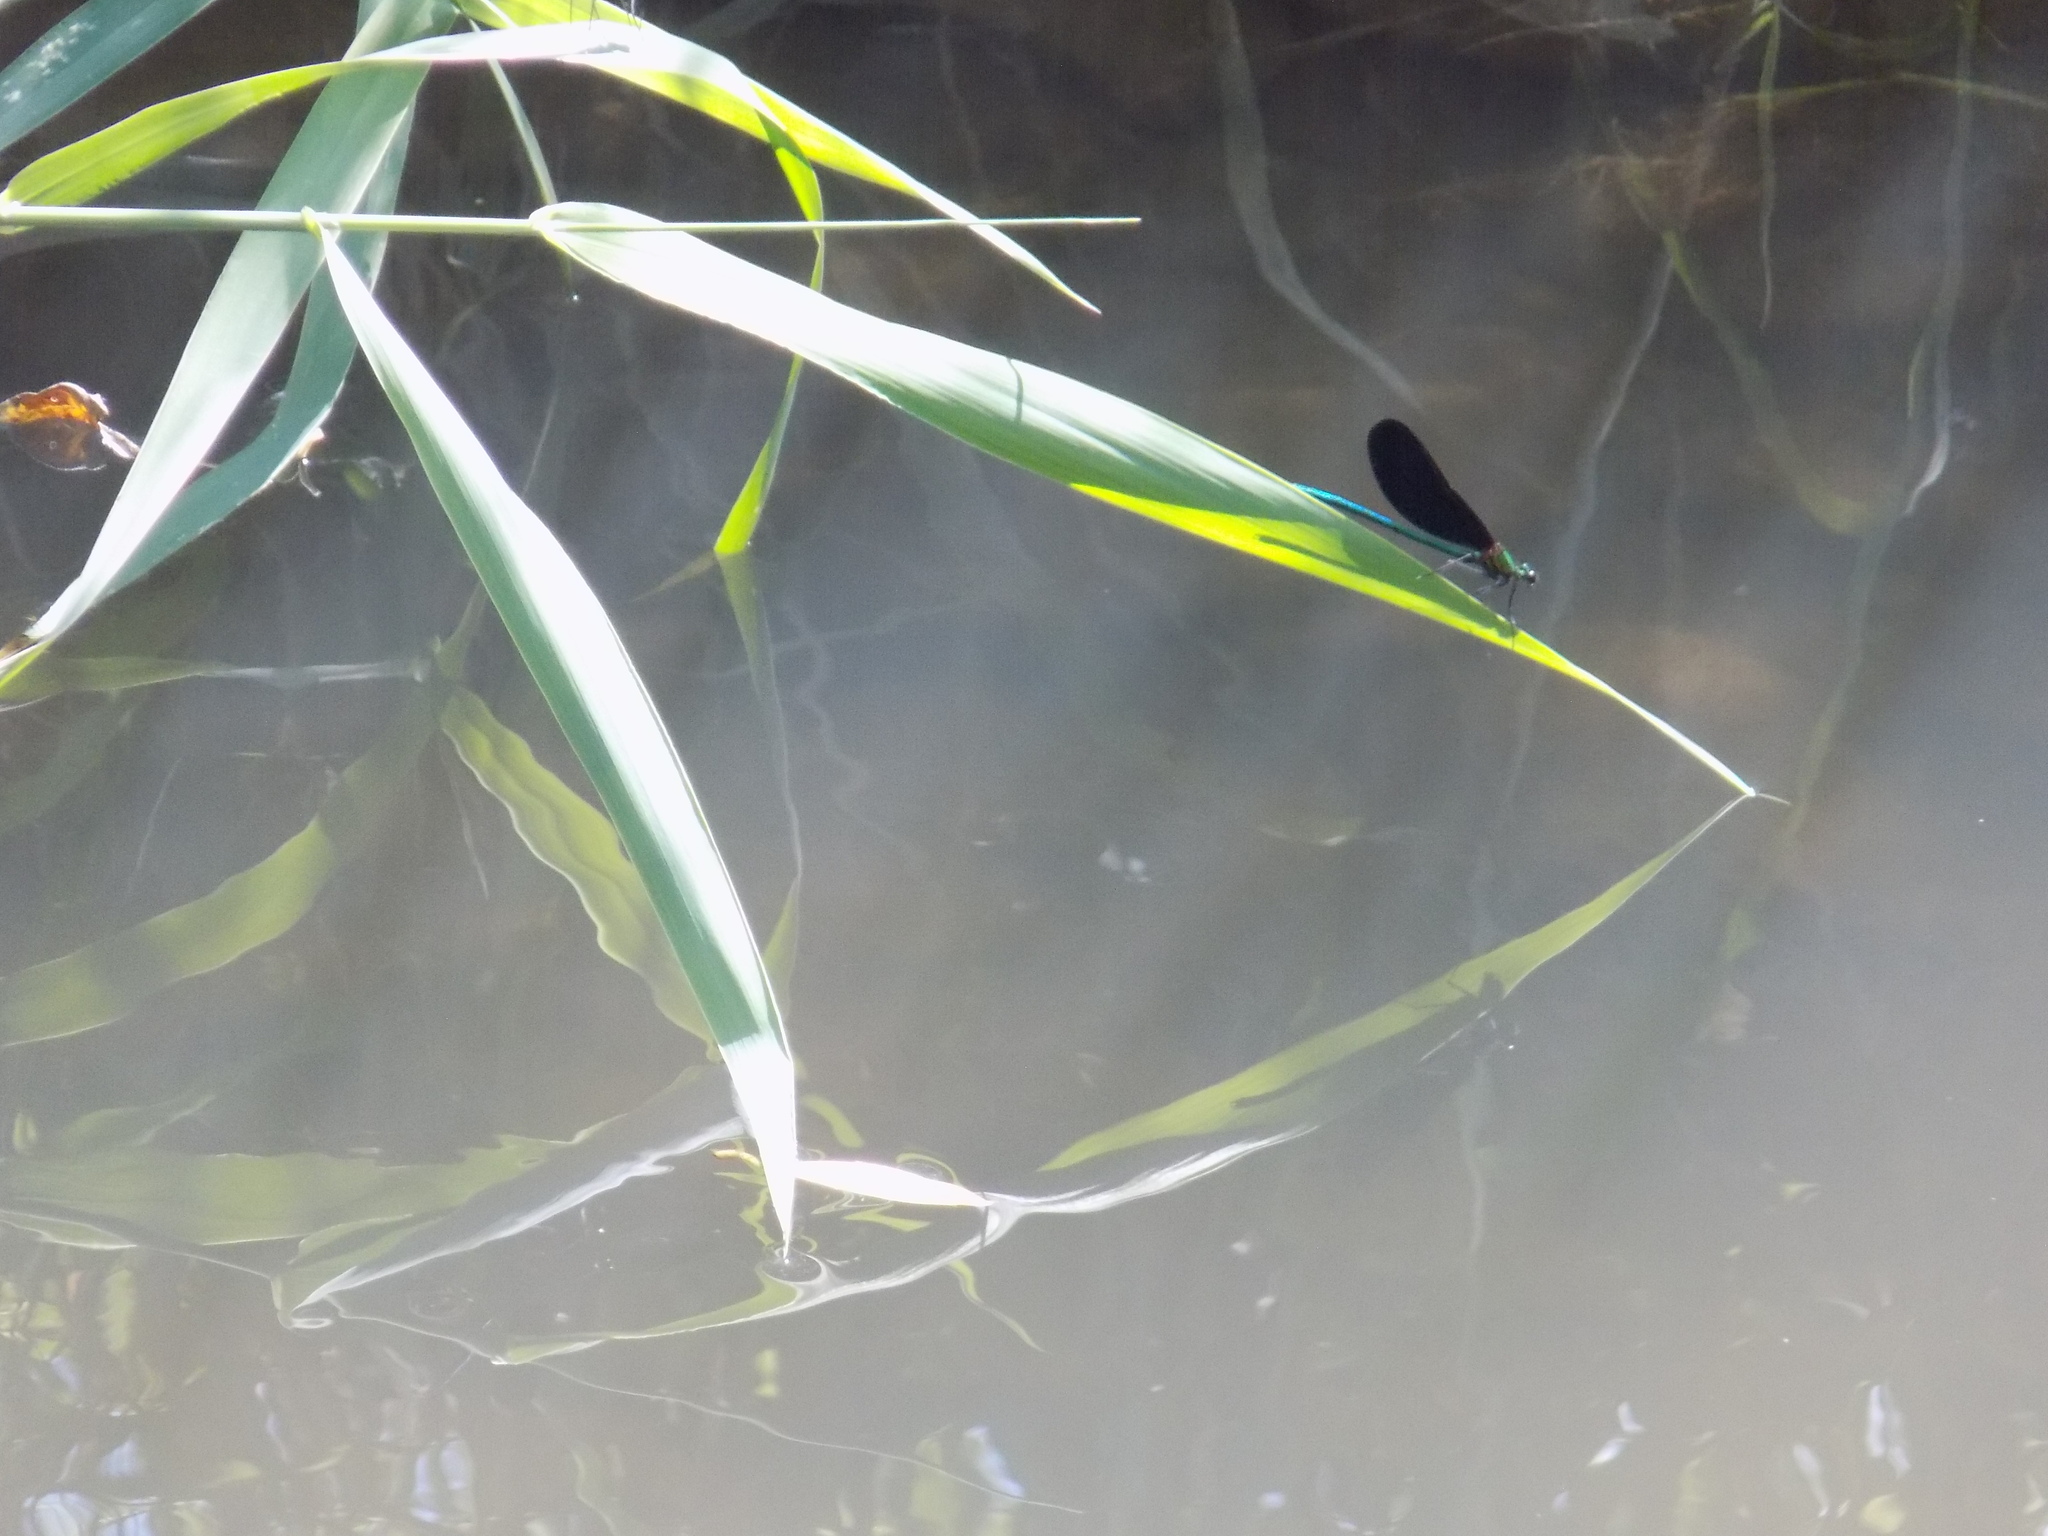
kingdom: Animalia
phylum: Arthropoda
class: Insecta
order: Odonata
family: Calopterygidae
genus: Calopteryx
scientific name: Calopteryx japonica
